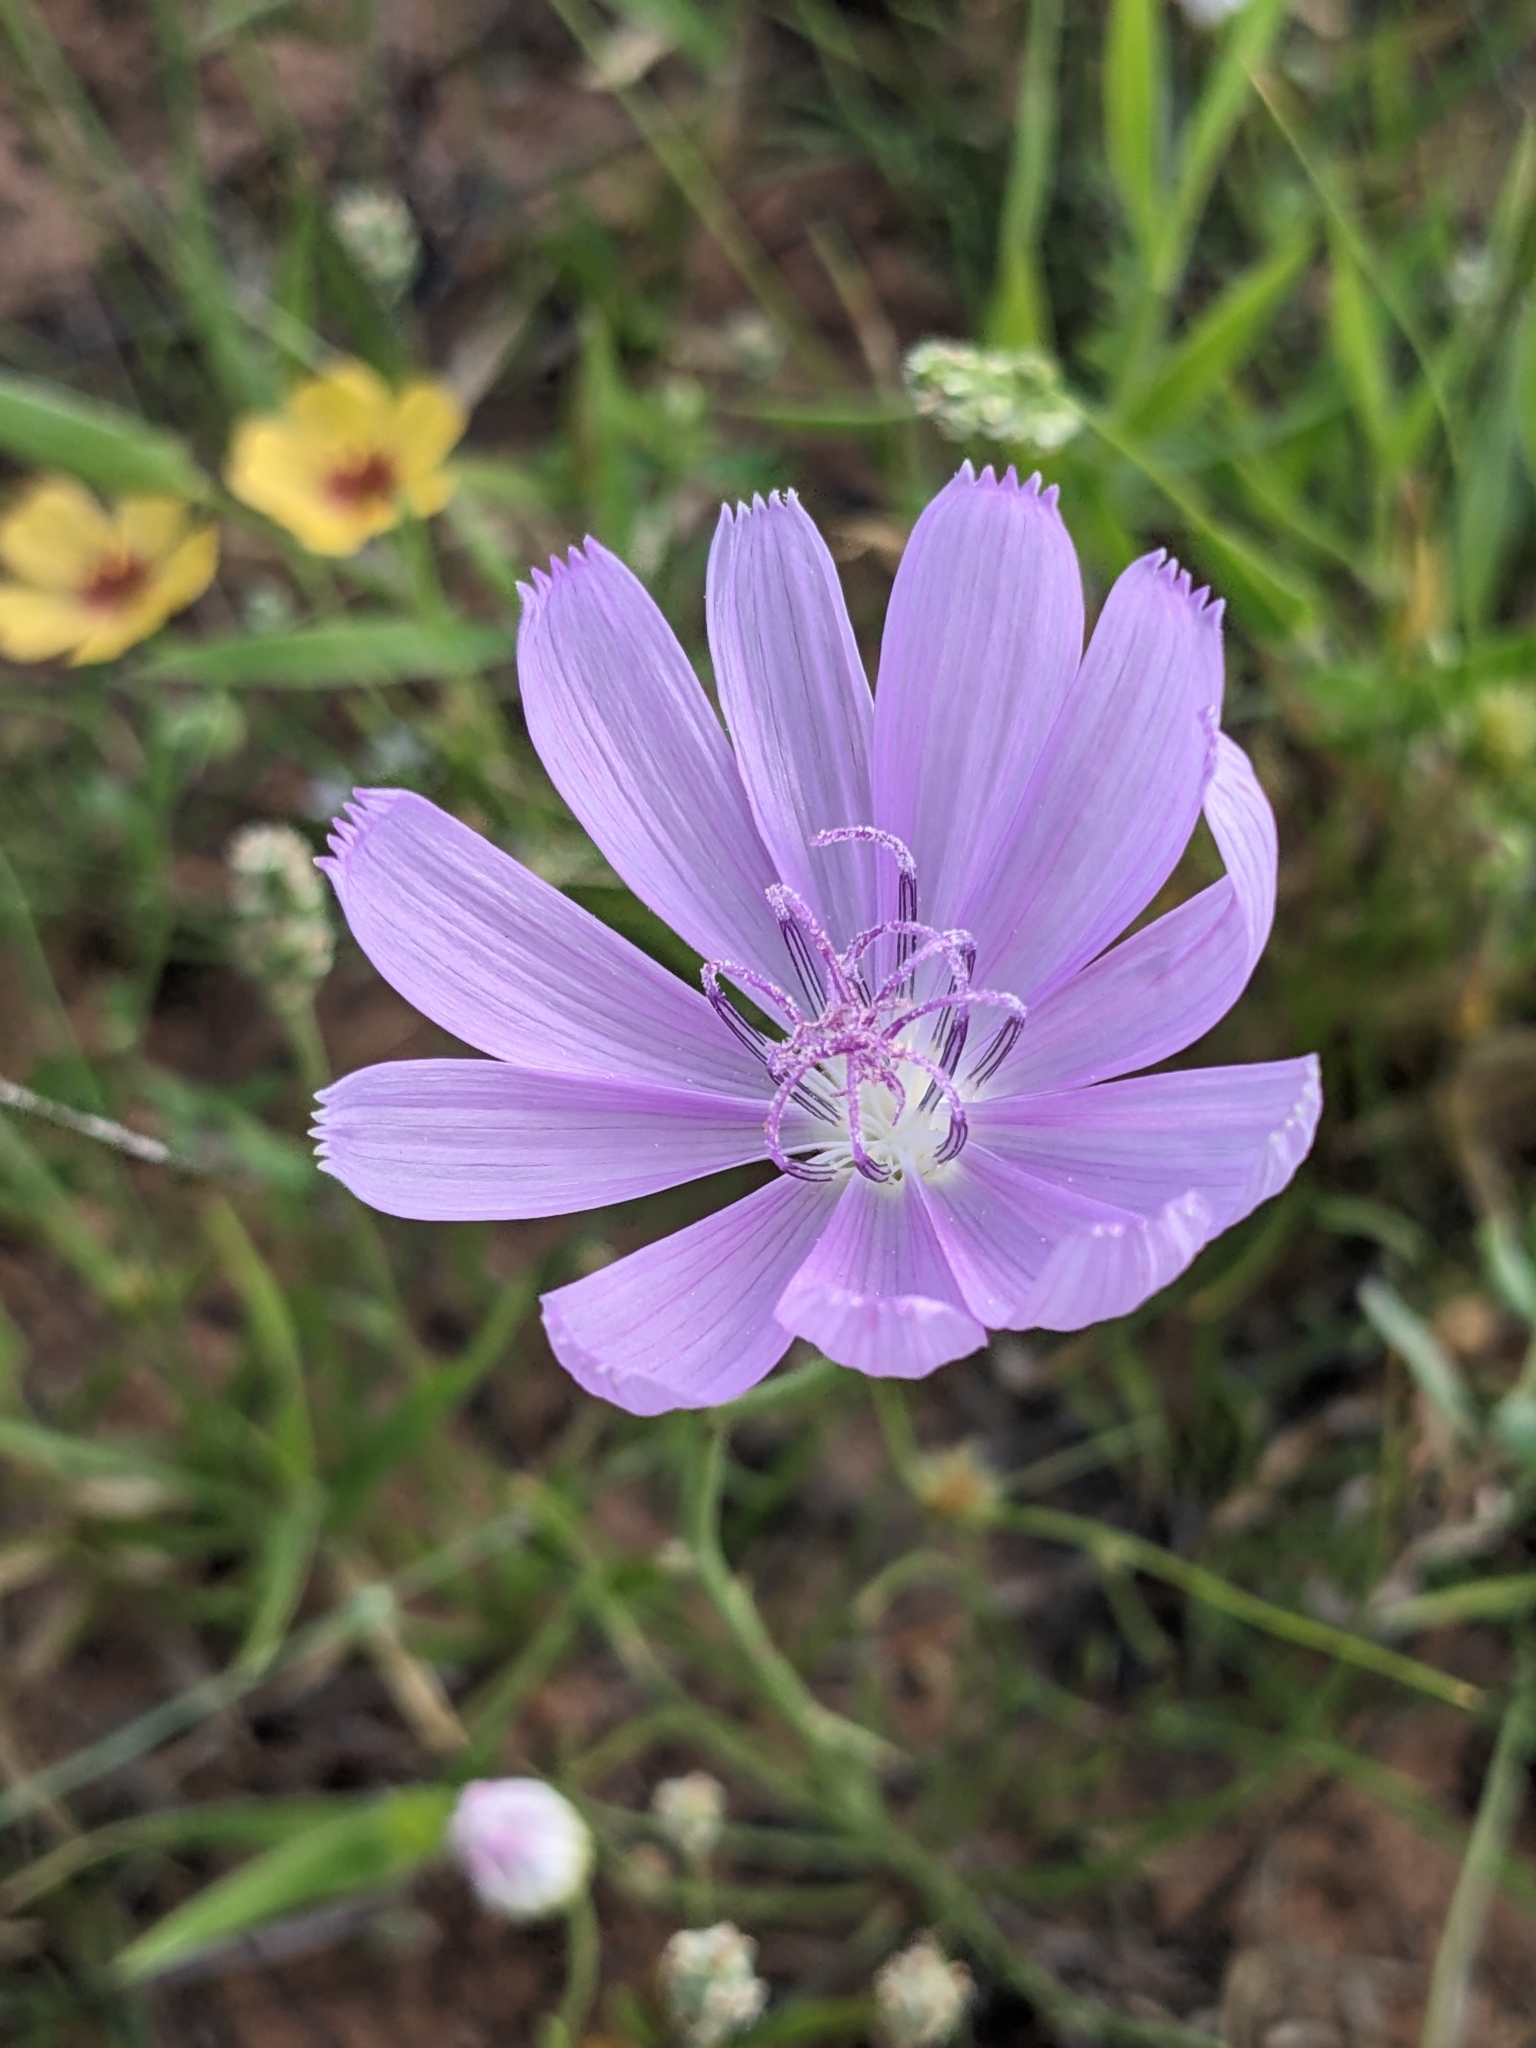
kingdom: Plantae
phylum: Tracheophyta
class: Magnoliopsida
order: Asterales
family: Asteraceae
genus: Lygodesmia
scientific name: Lygodesmia texana
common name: Texas skeleton-plant
